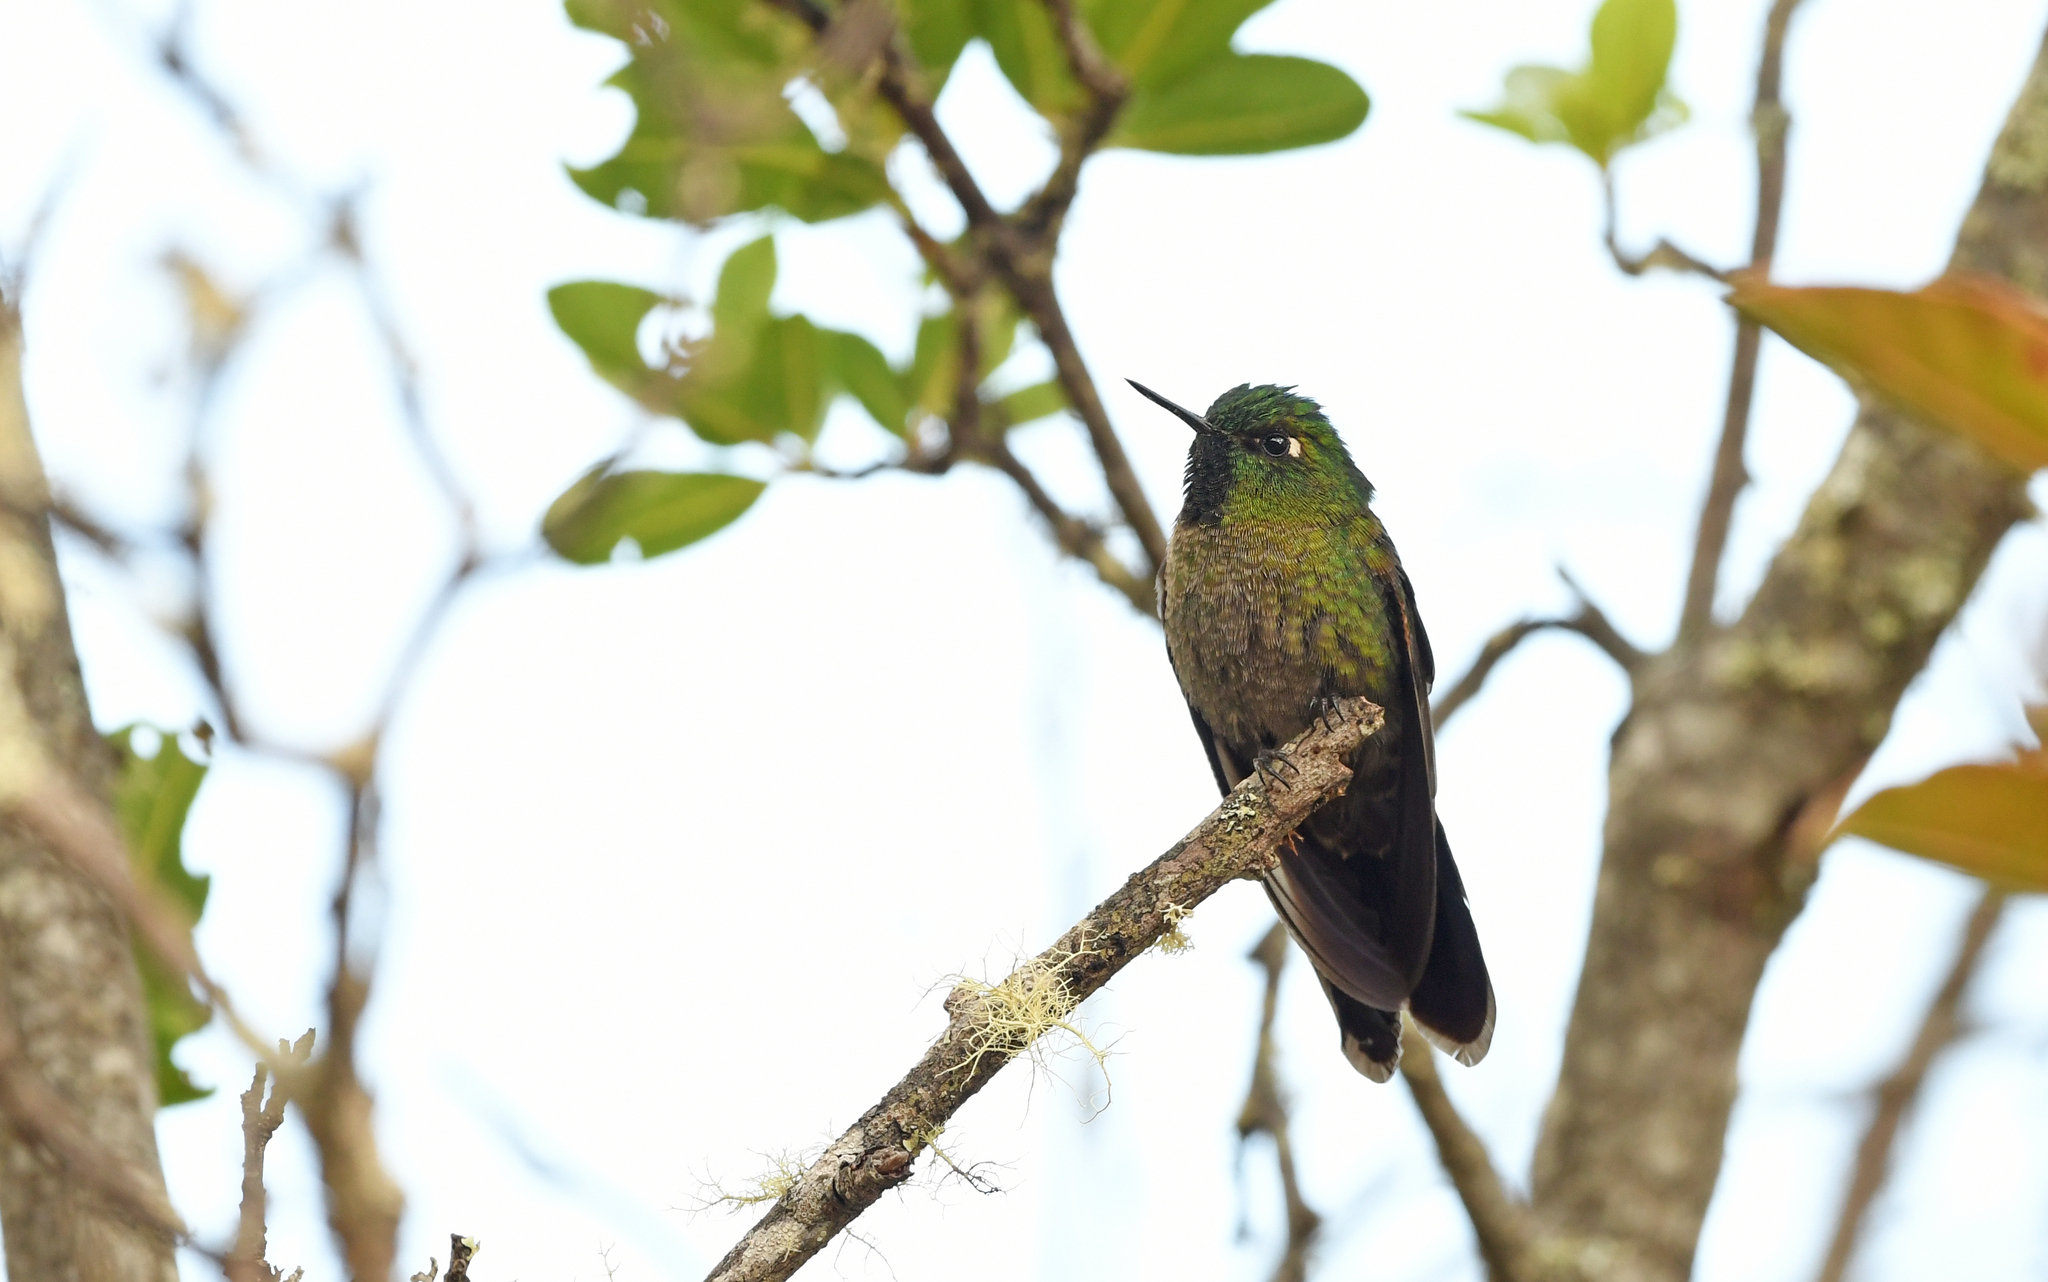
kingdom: Animalia
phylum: Chordata
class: Aves
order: Apodiformes
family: Trochilidae
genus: Metallura
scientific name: Metallura tyrianthina
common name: Tyrian metaltail
